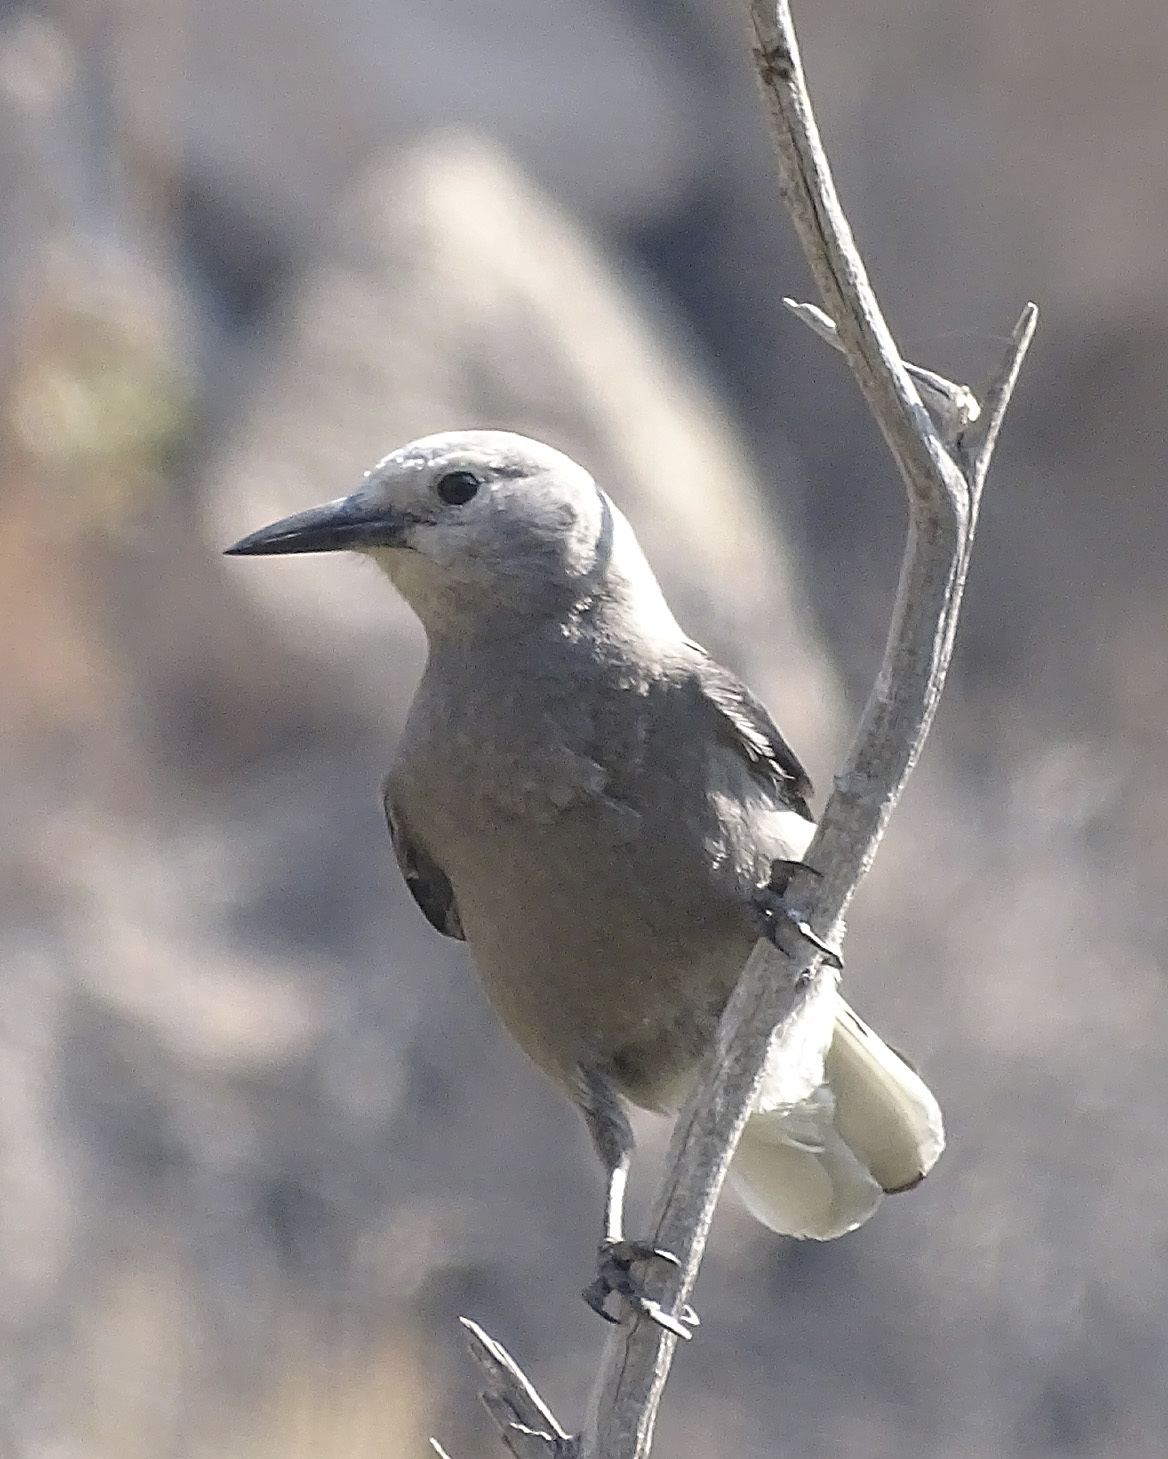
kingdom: Animalia
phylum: Chordata
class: Aves
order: Passeriformes
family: Corvidae
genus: Nucifraga
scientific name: Nucifraga columbiana
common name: Clark's nutcracker
